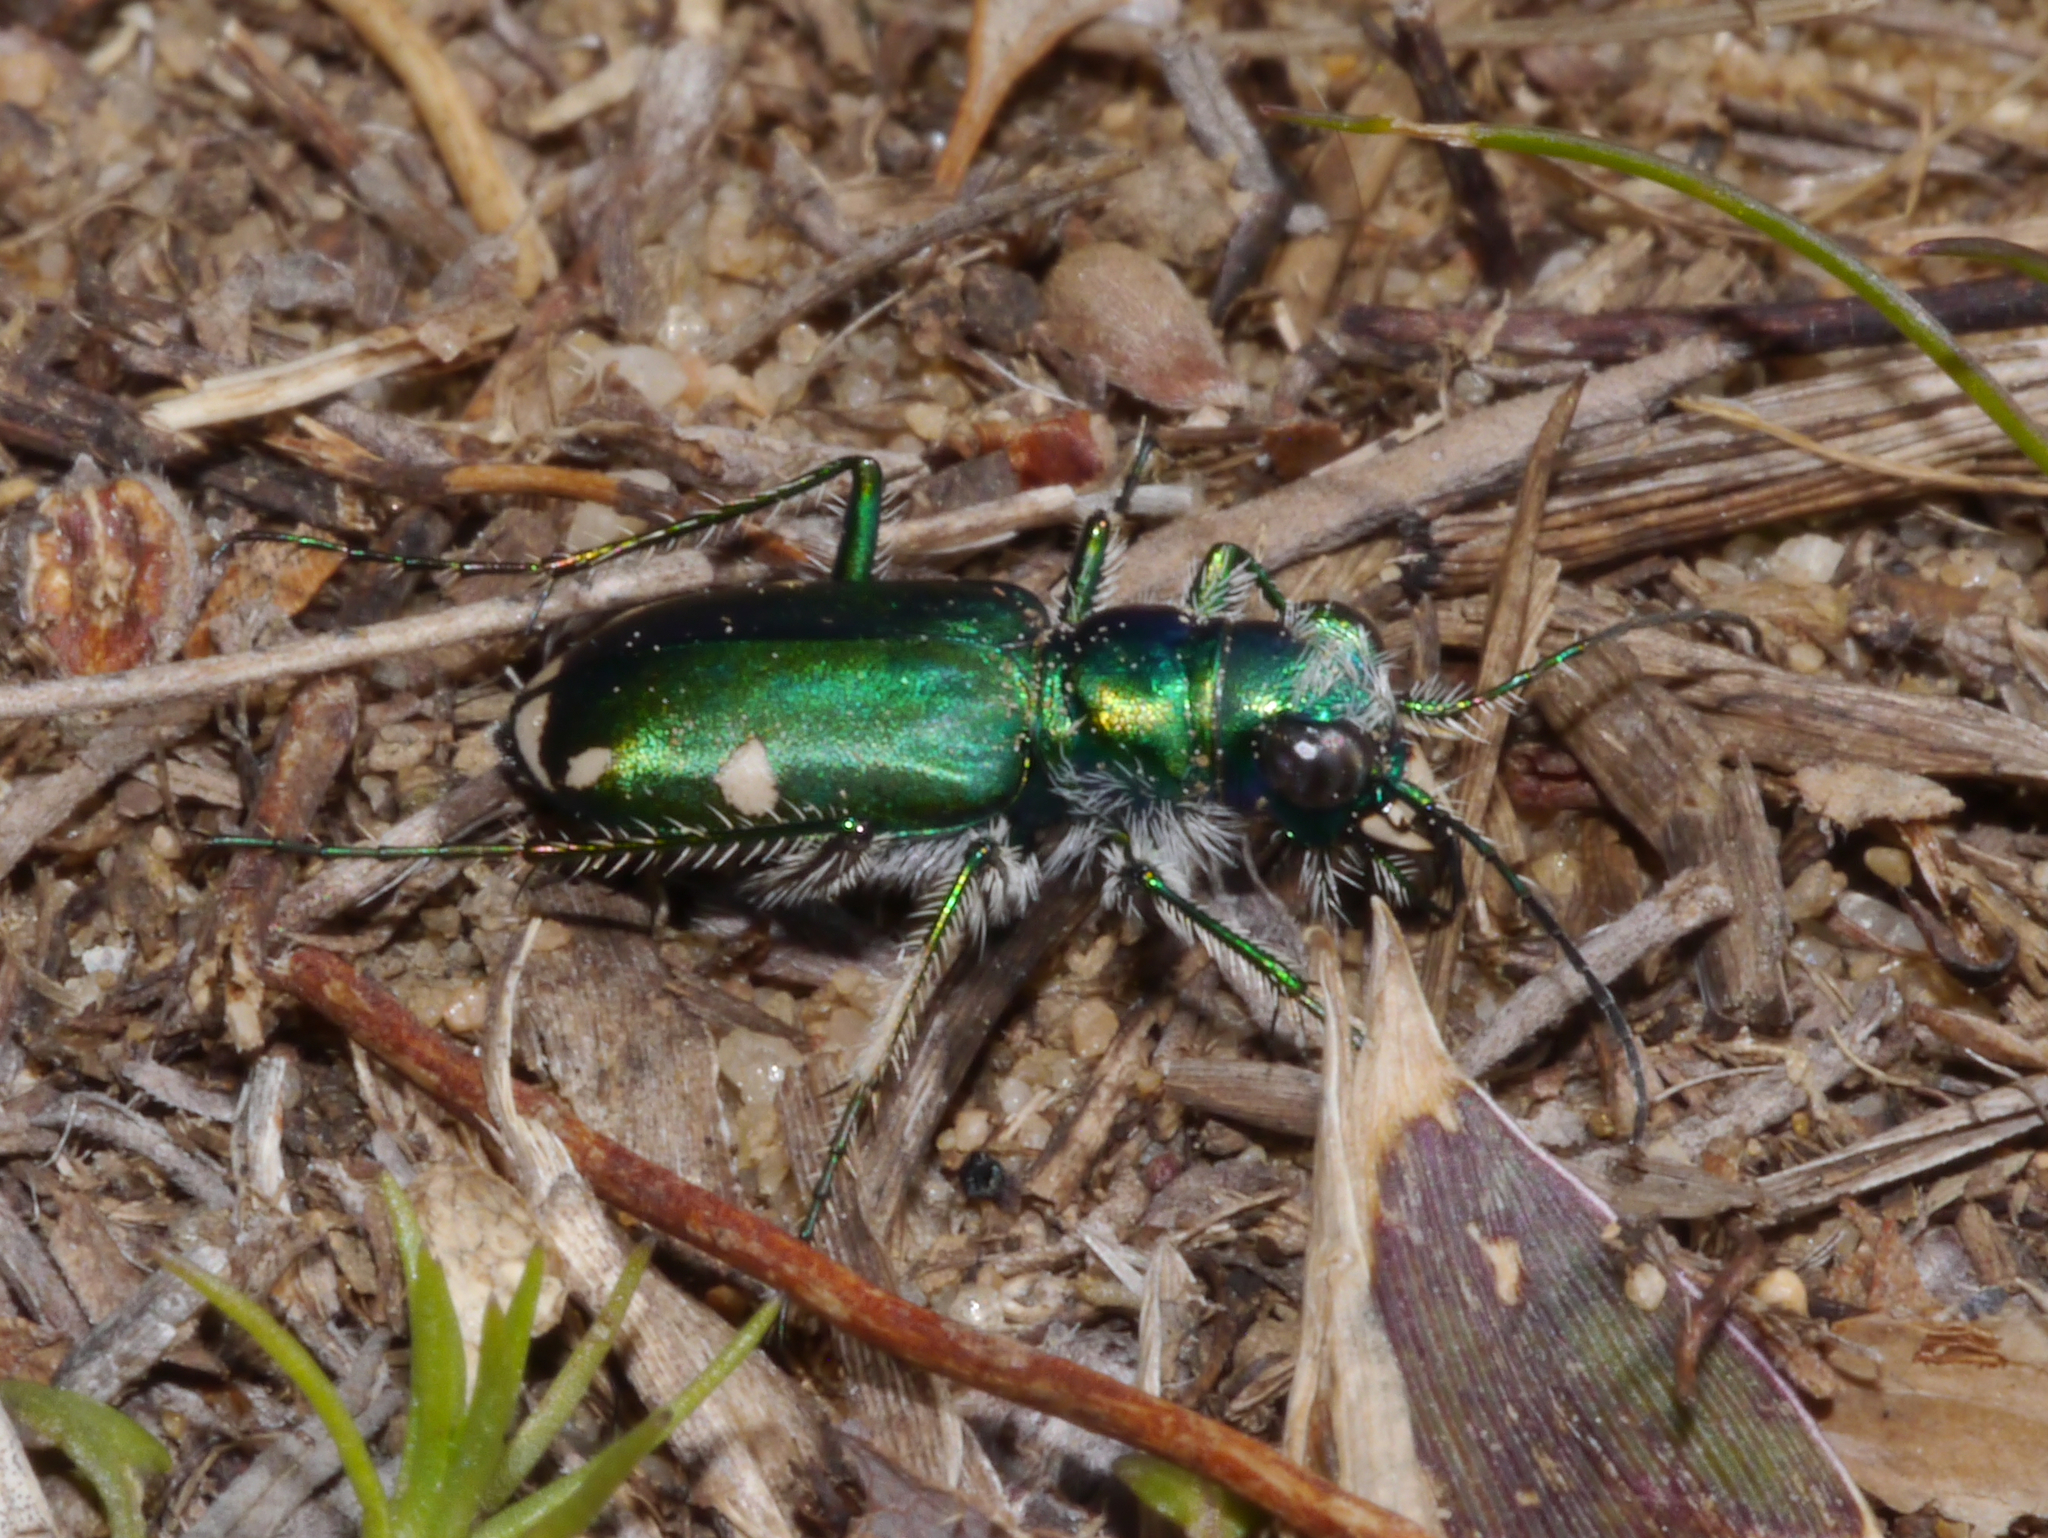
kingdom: Animalia
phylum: Arthropoda
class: Insecta
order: Coleoptera
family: Carabidae
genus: Cicindela
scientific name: Cicindela scutellaris
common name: Festive tiger beetle
